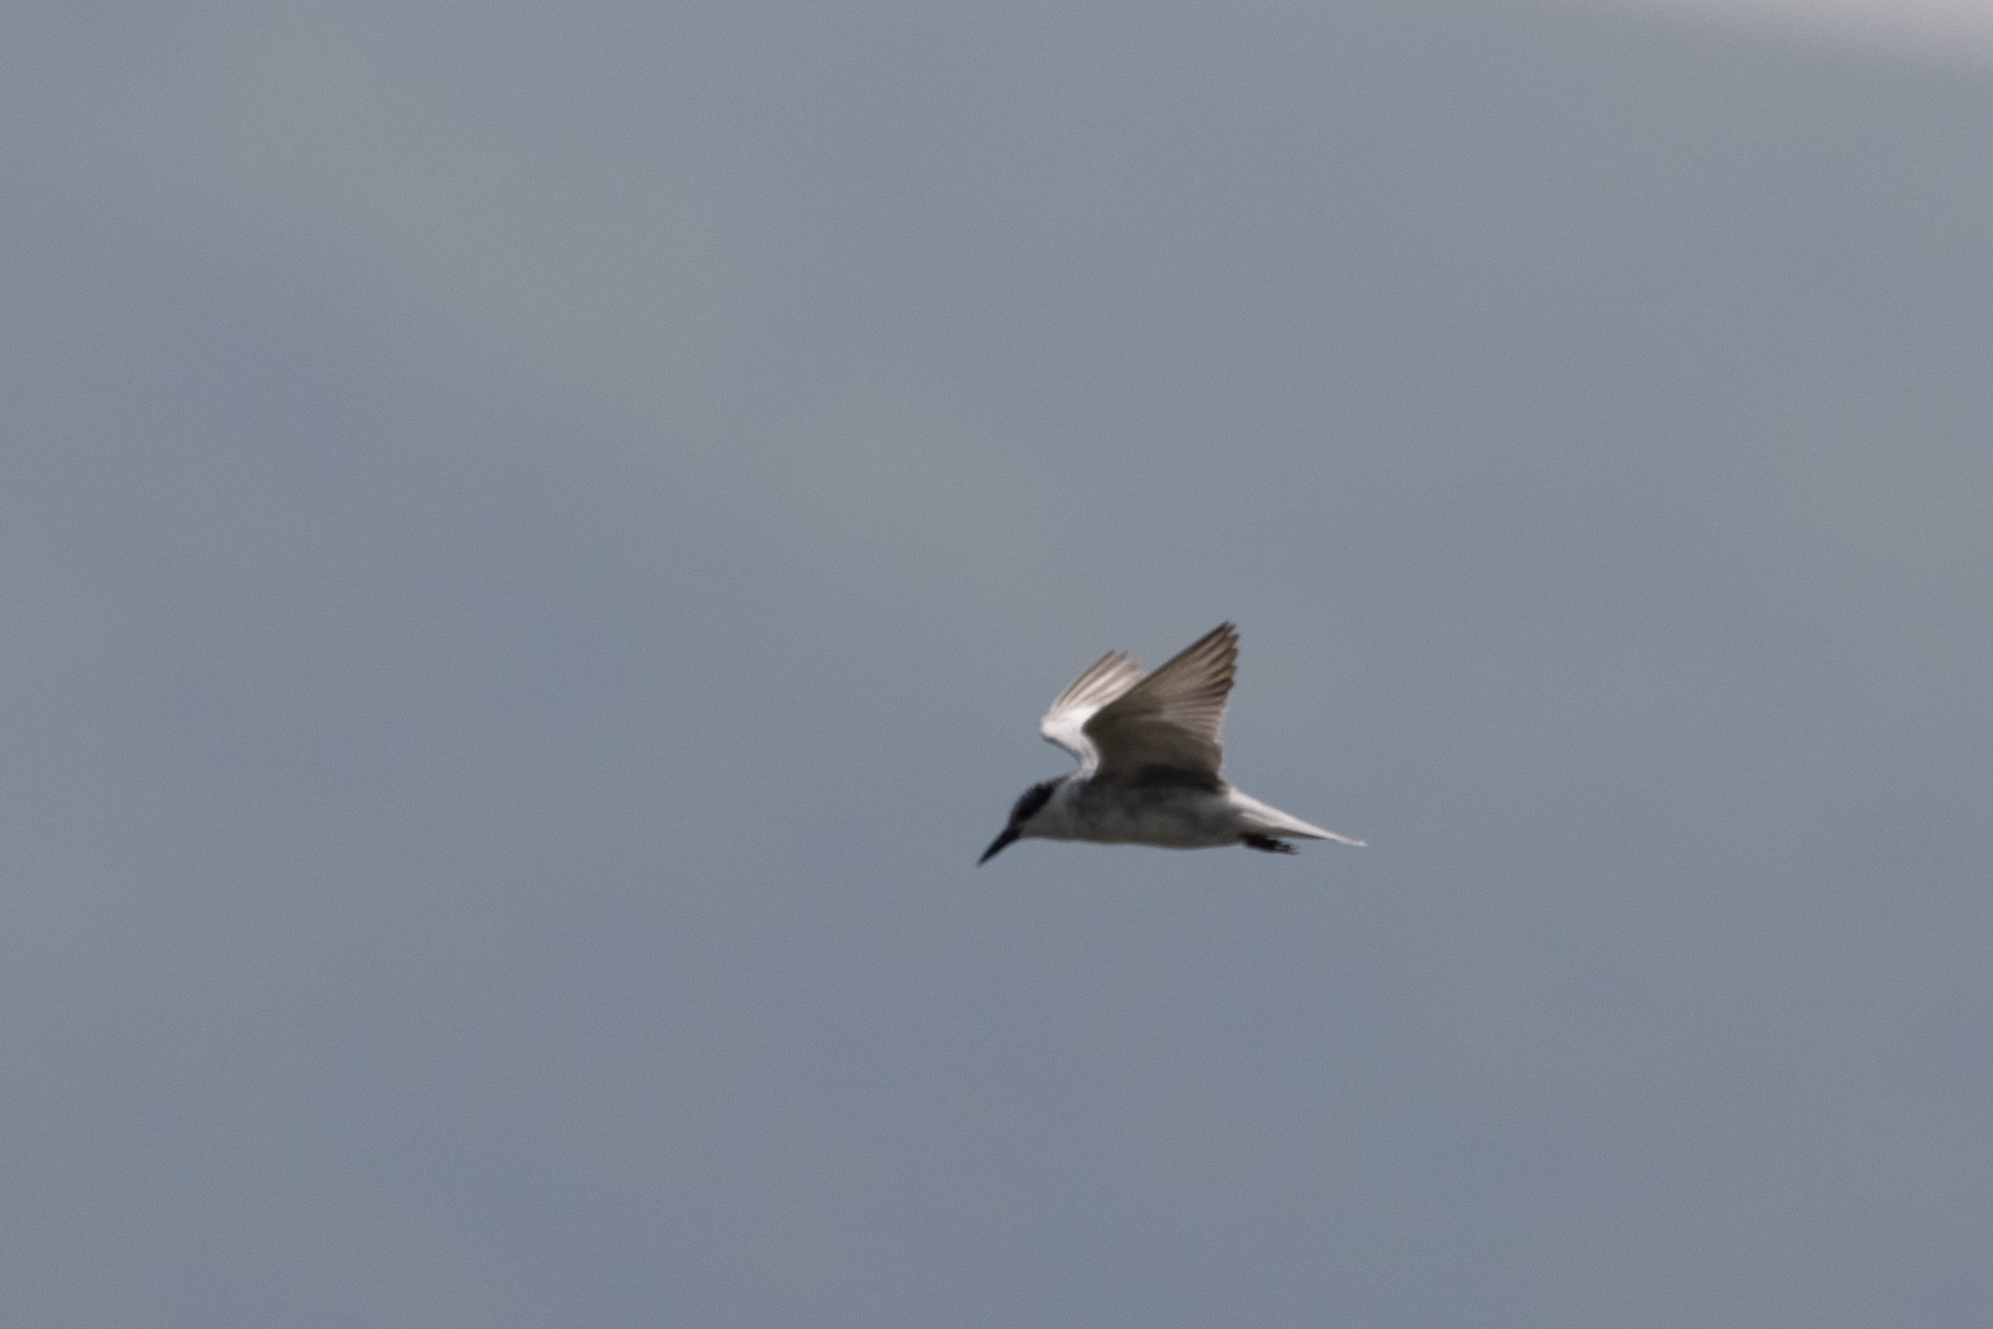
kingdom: Animalia
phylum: Chordata
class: Aves
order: Charadriiformes
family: Laridae
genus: Chlidonias
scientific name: Chlidonias hybrida
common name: Whiskered tern
